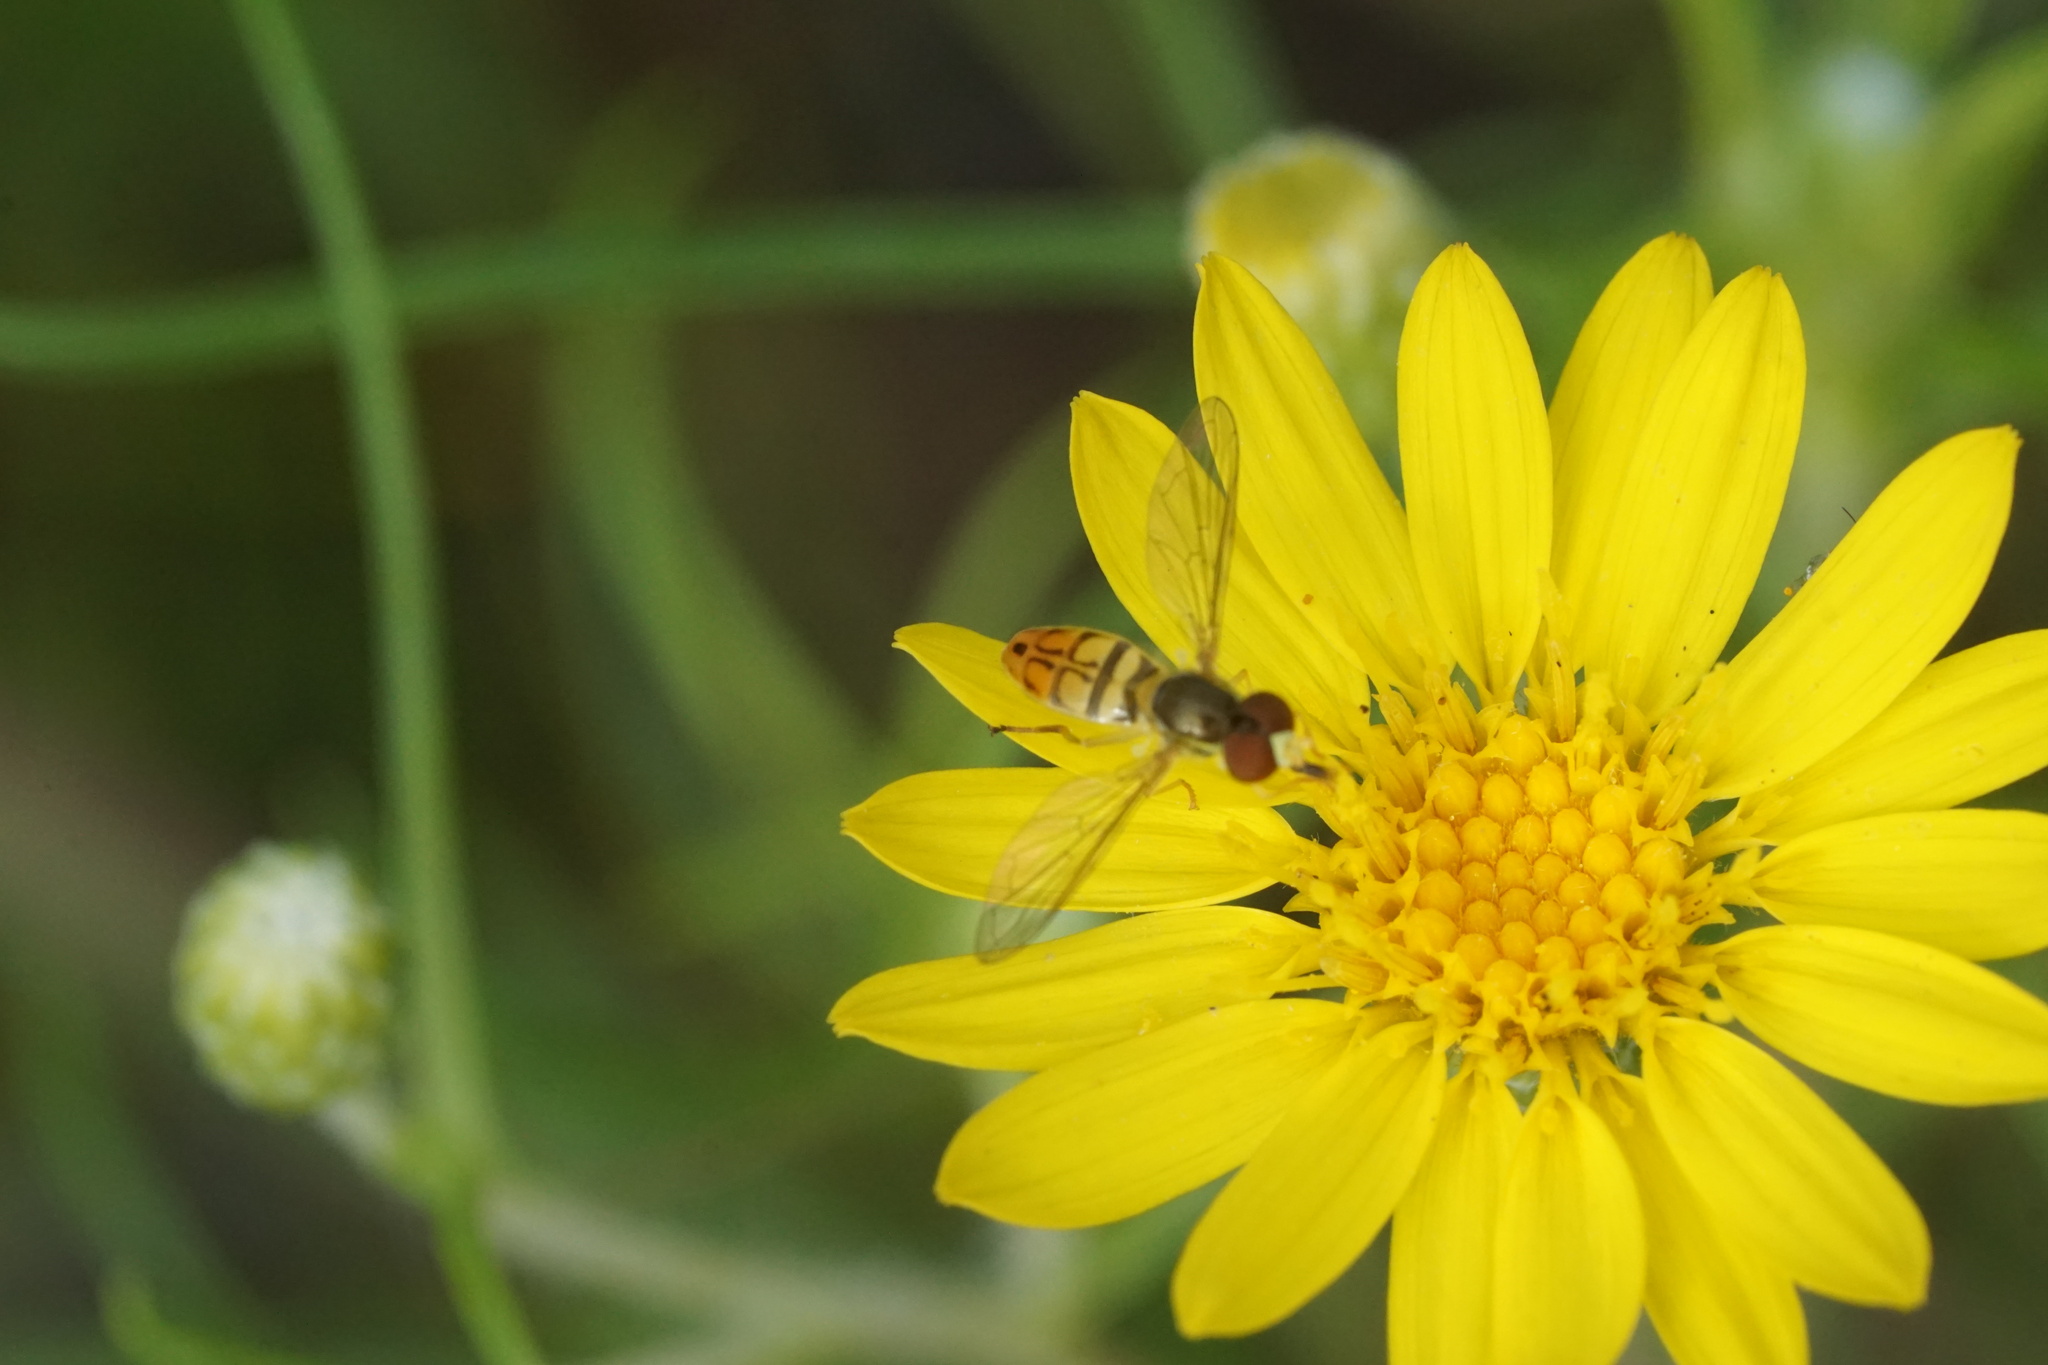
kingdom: Animalia
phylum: Arthropoda
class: Insecta
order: Diptera
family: Syrphidae
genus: Toxomerus
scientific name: Toxomerus marginatus
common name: Syrphid fly
